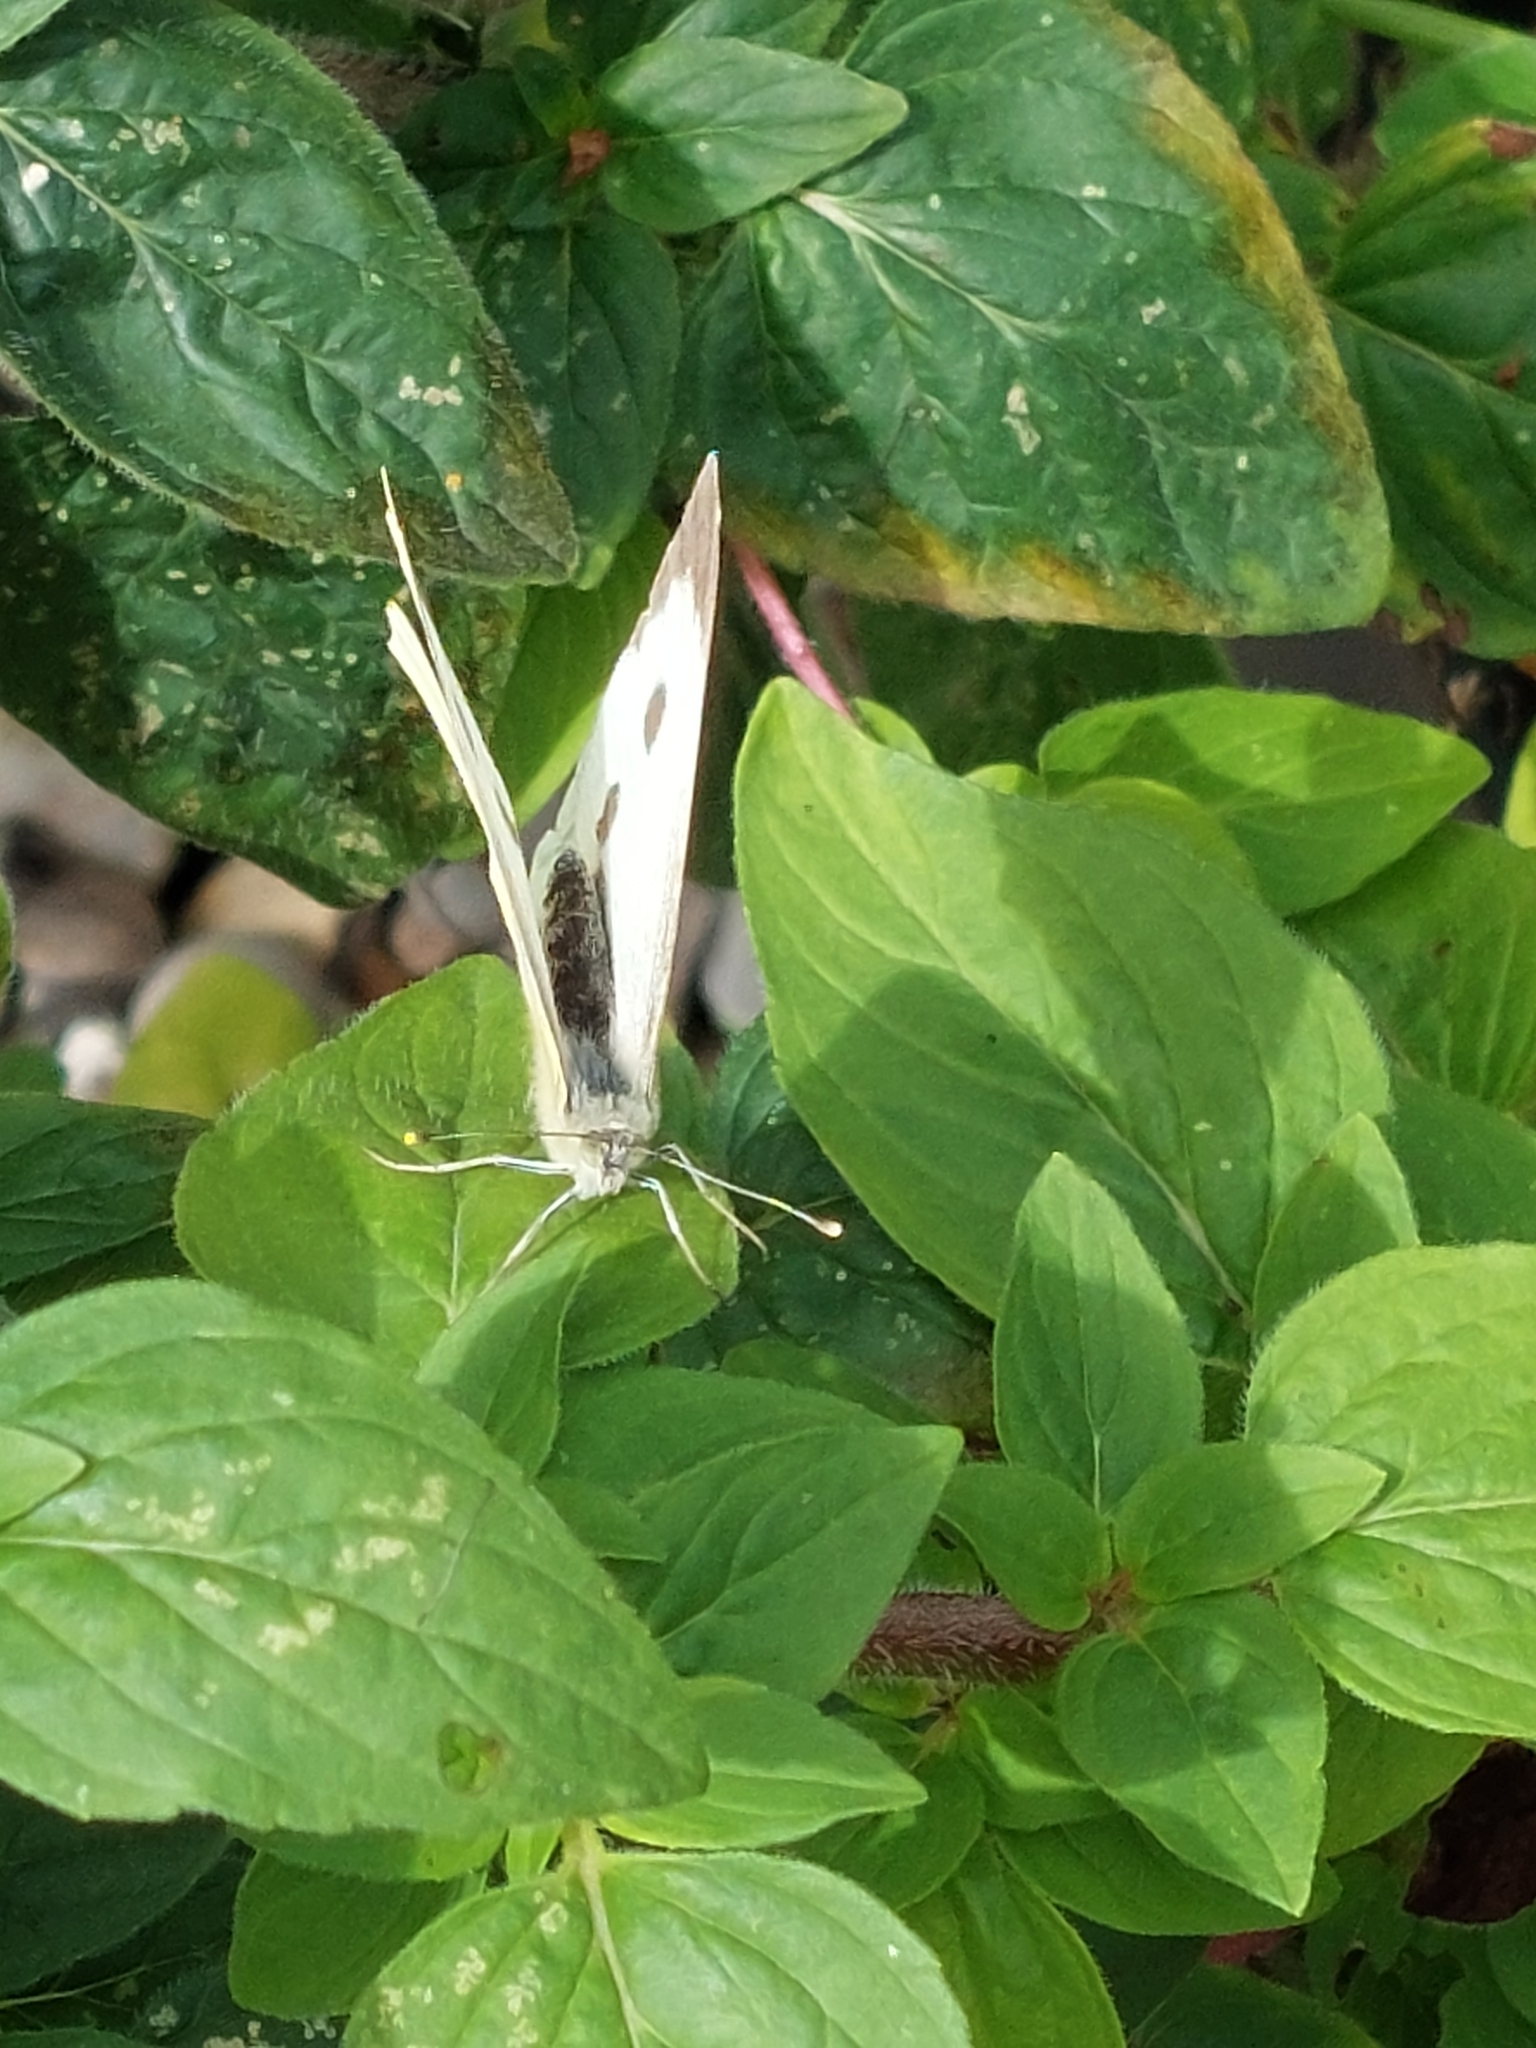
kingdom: Animalia
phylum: Arthropoda
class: Insecta
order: Lepidoptera
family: Pieridae
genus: Pieris
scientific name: Pieris brassicae
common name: Large white
